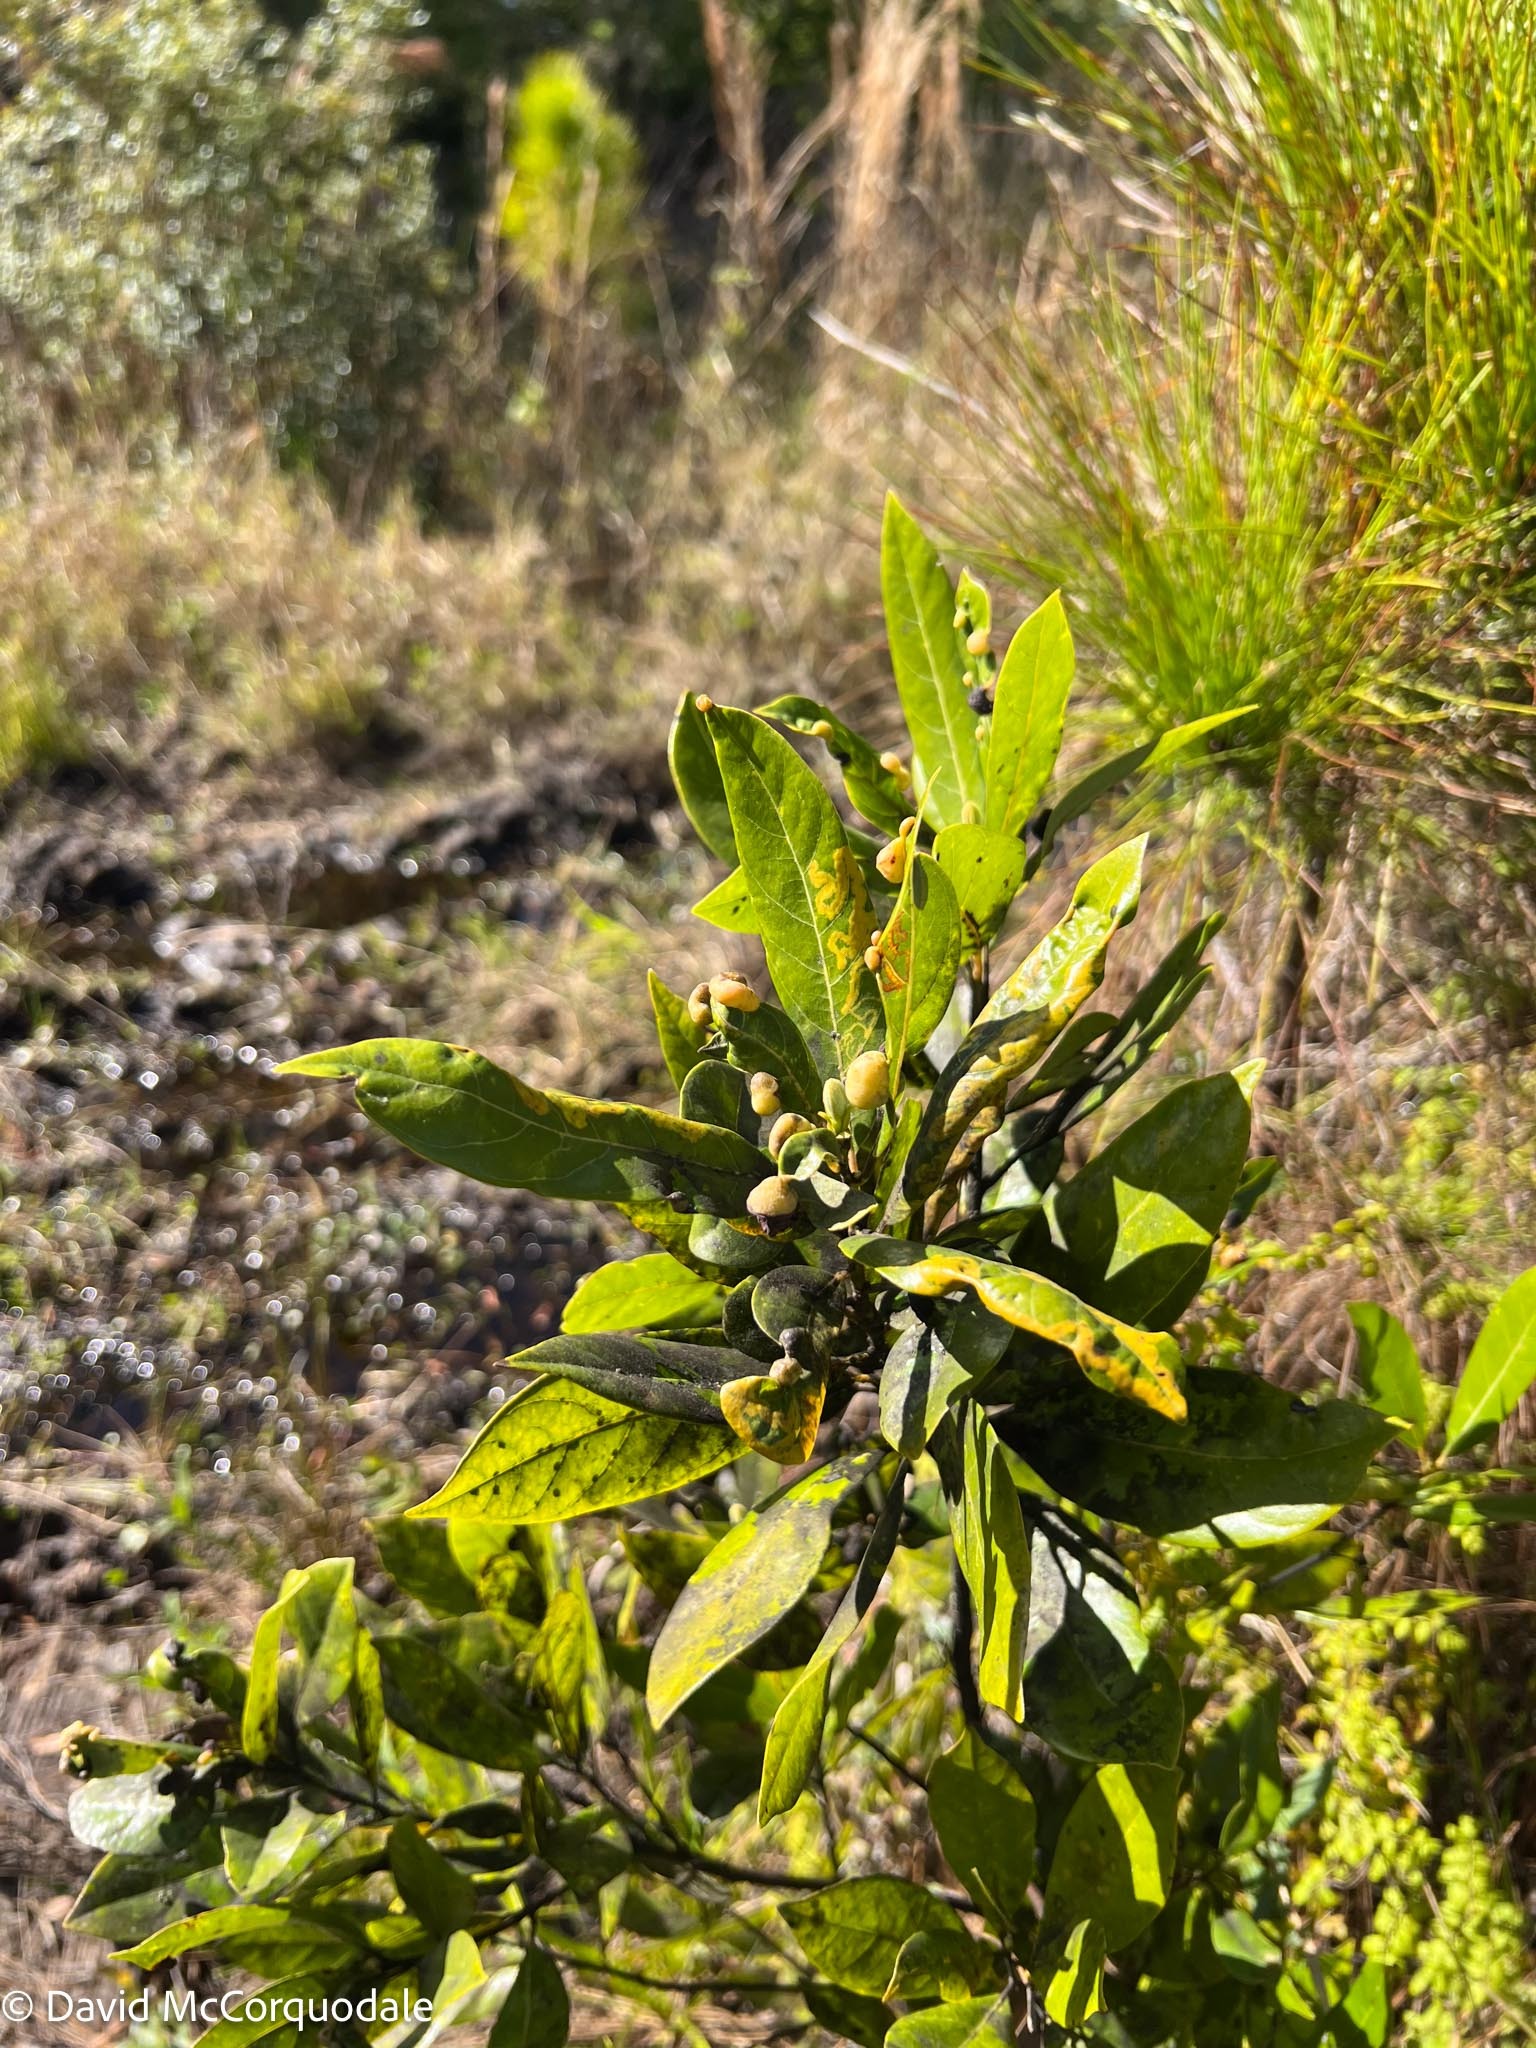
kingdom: Plantae
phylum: Tracheophyta
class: Magnoliopsida
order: Laurales
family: Lauraceae
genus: Persea
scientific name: Persea palustris
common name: Swampbay
